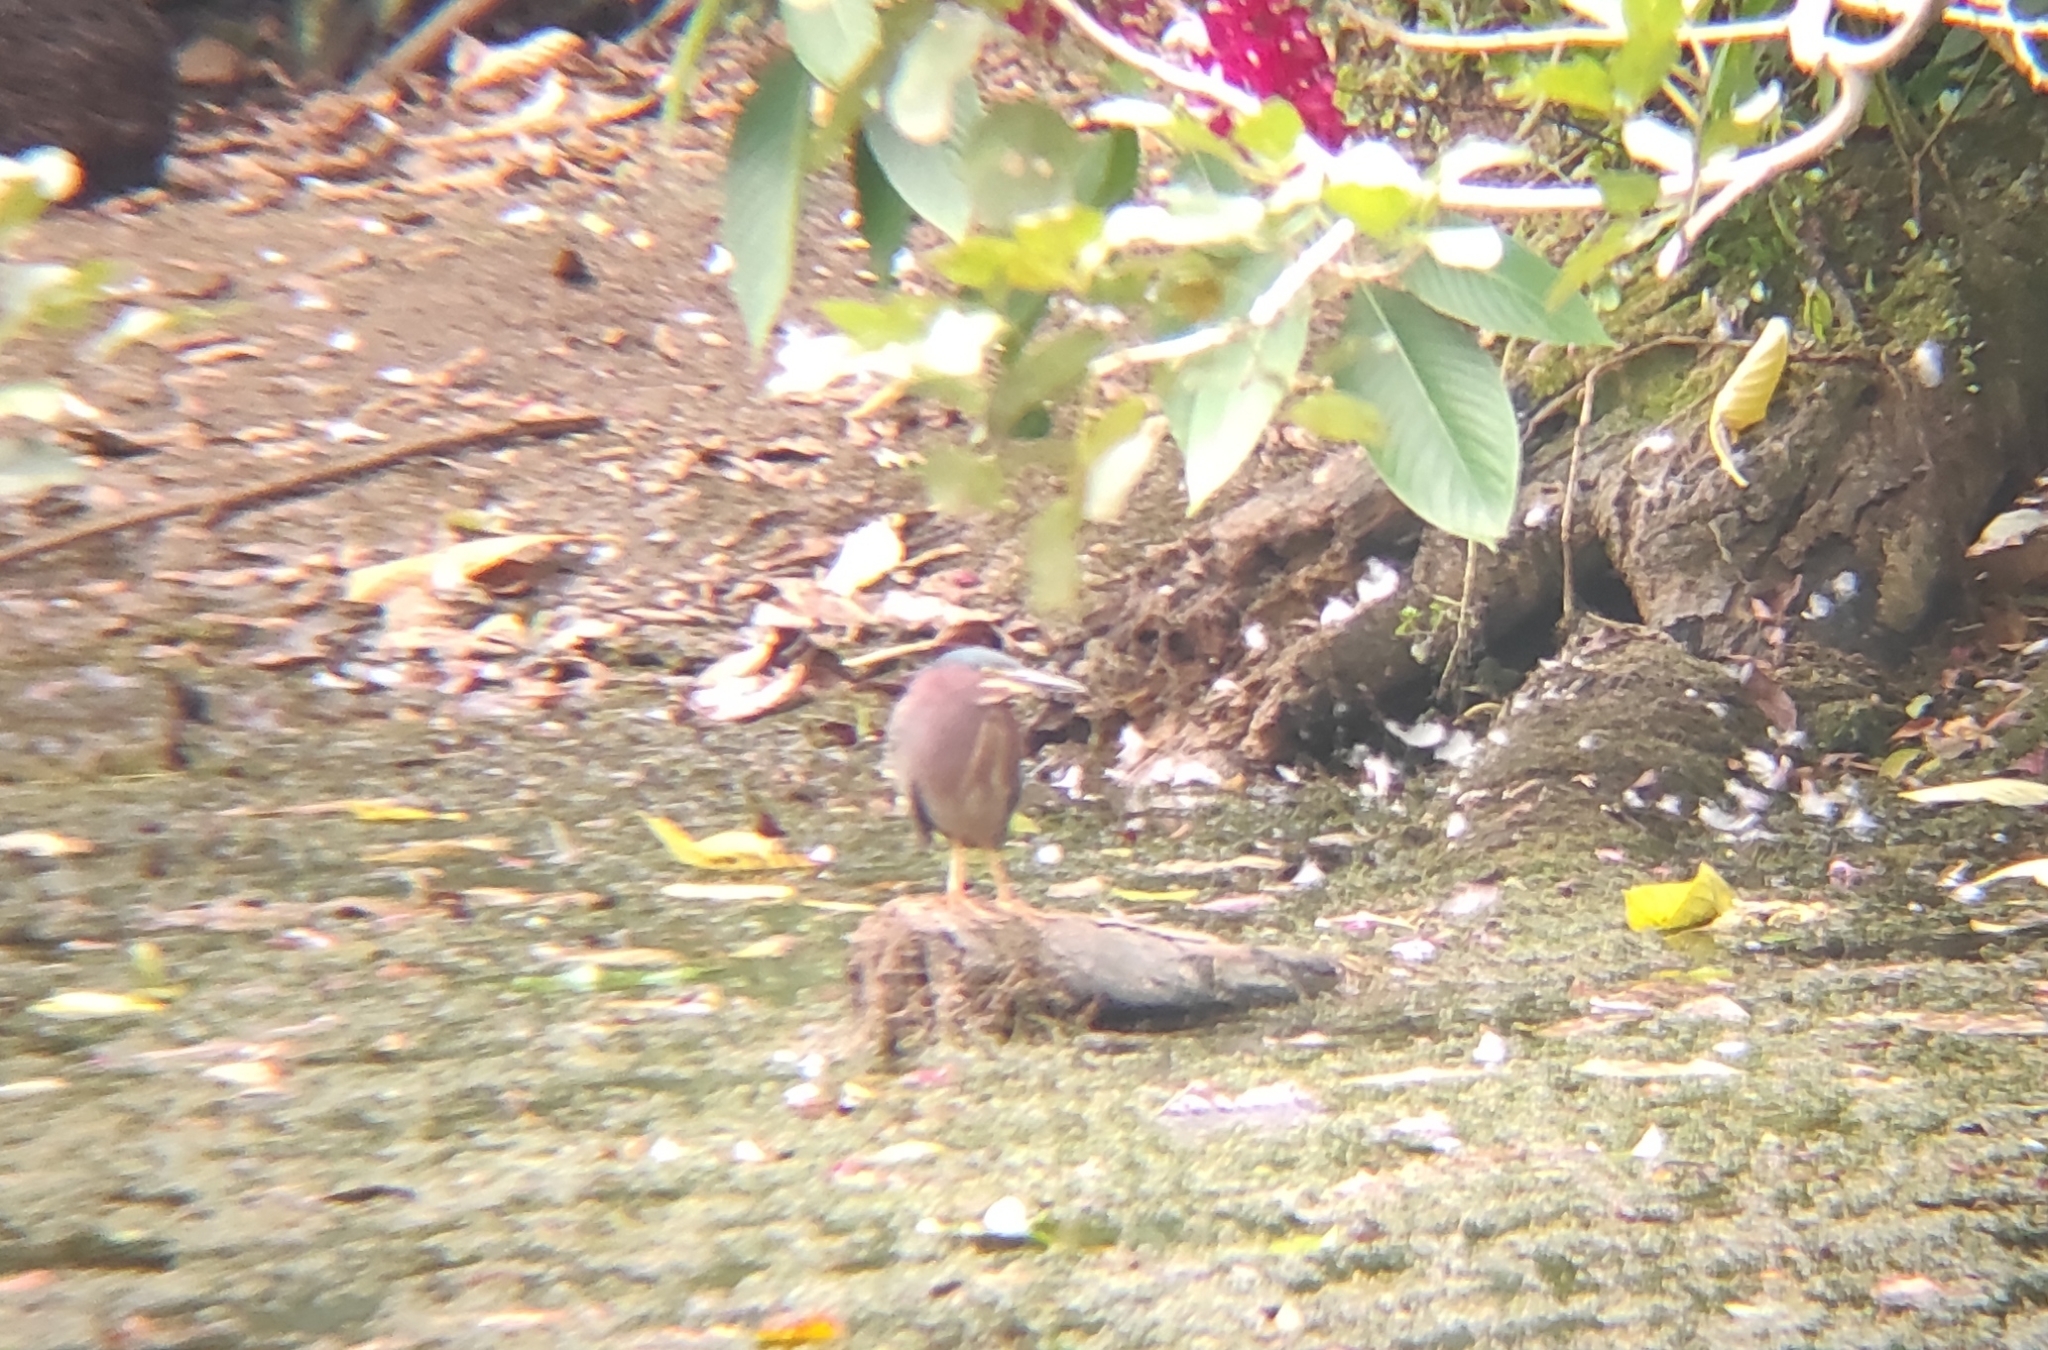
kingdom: Animalia
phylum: Chordata
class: Aves
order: Pelecaniformes
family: Ardeidae
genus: Butorides
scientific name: Butorides virescens
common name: Green heron
